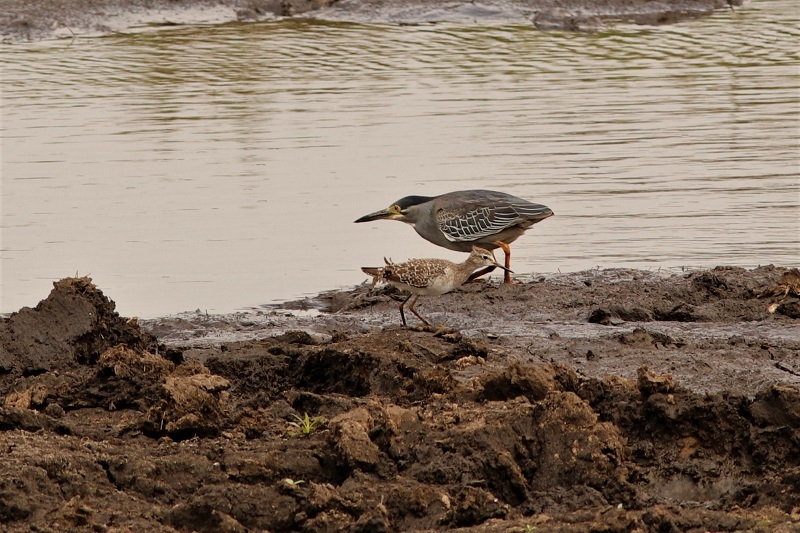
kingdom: Animalia
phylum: Chordata
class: Aves
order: Charadriiformes
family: Scolopacidae
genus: Tringa
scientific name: Tringa glareola
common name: Wood sandpiper
